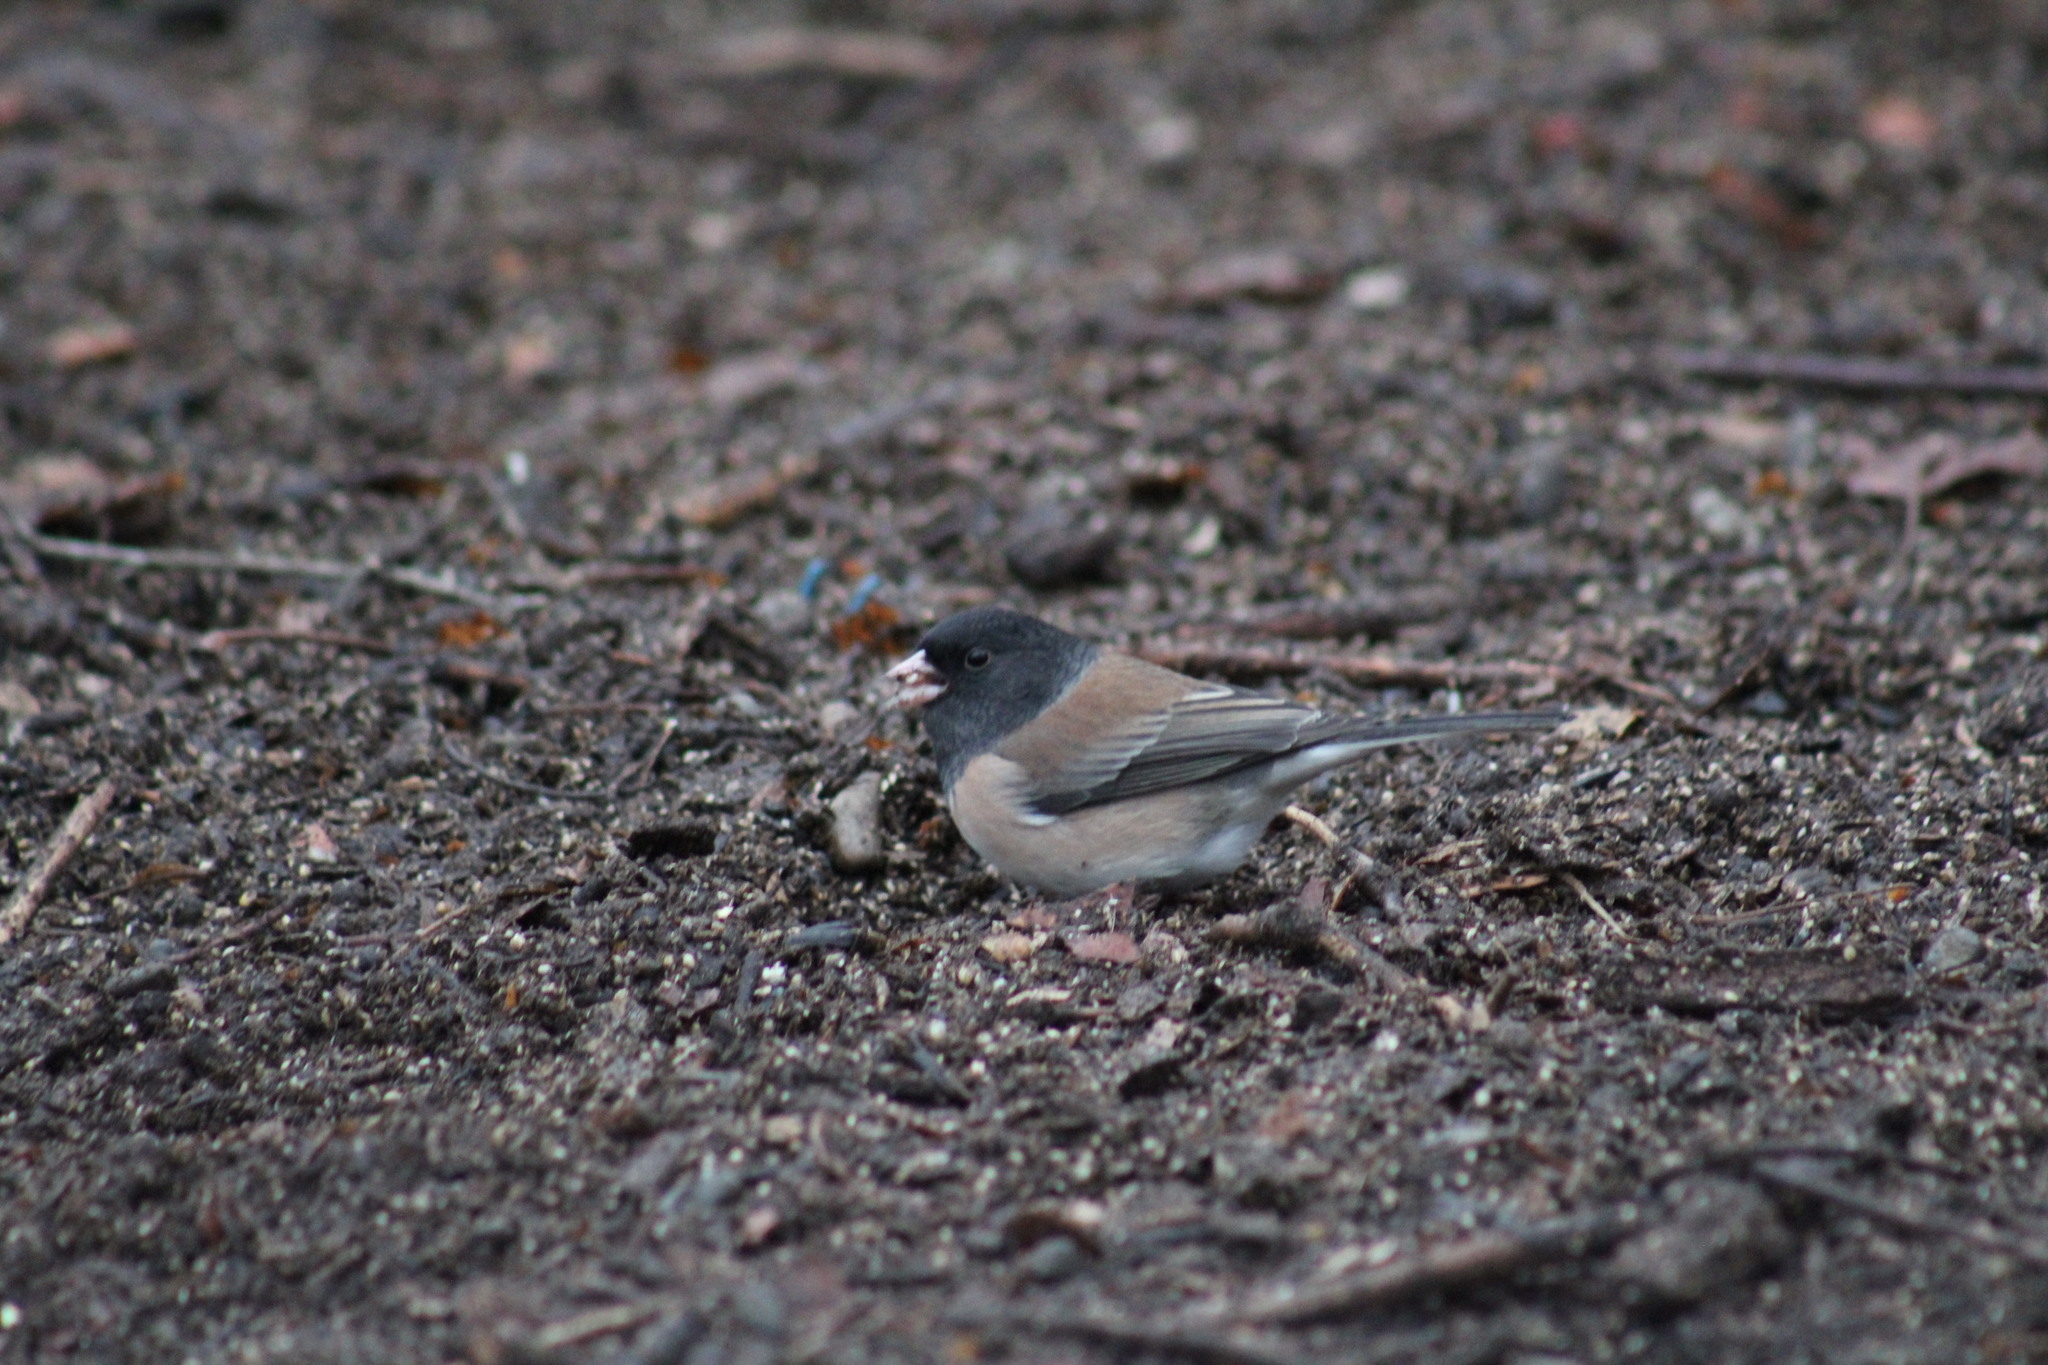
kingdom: Animalia
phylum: Chordata
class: Aves
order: Passeriformes
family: Passerellidae
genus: Junco
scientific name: Junco hyemalis
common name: Dark-eyed junco
